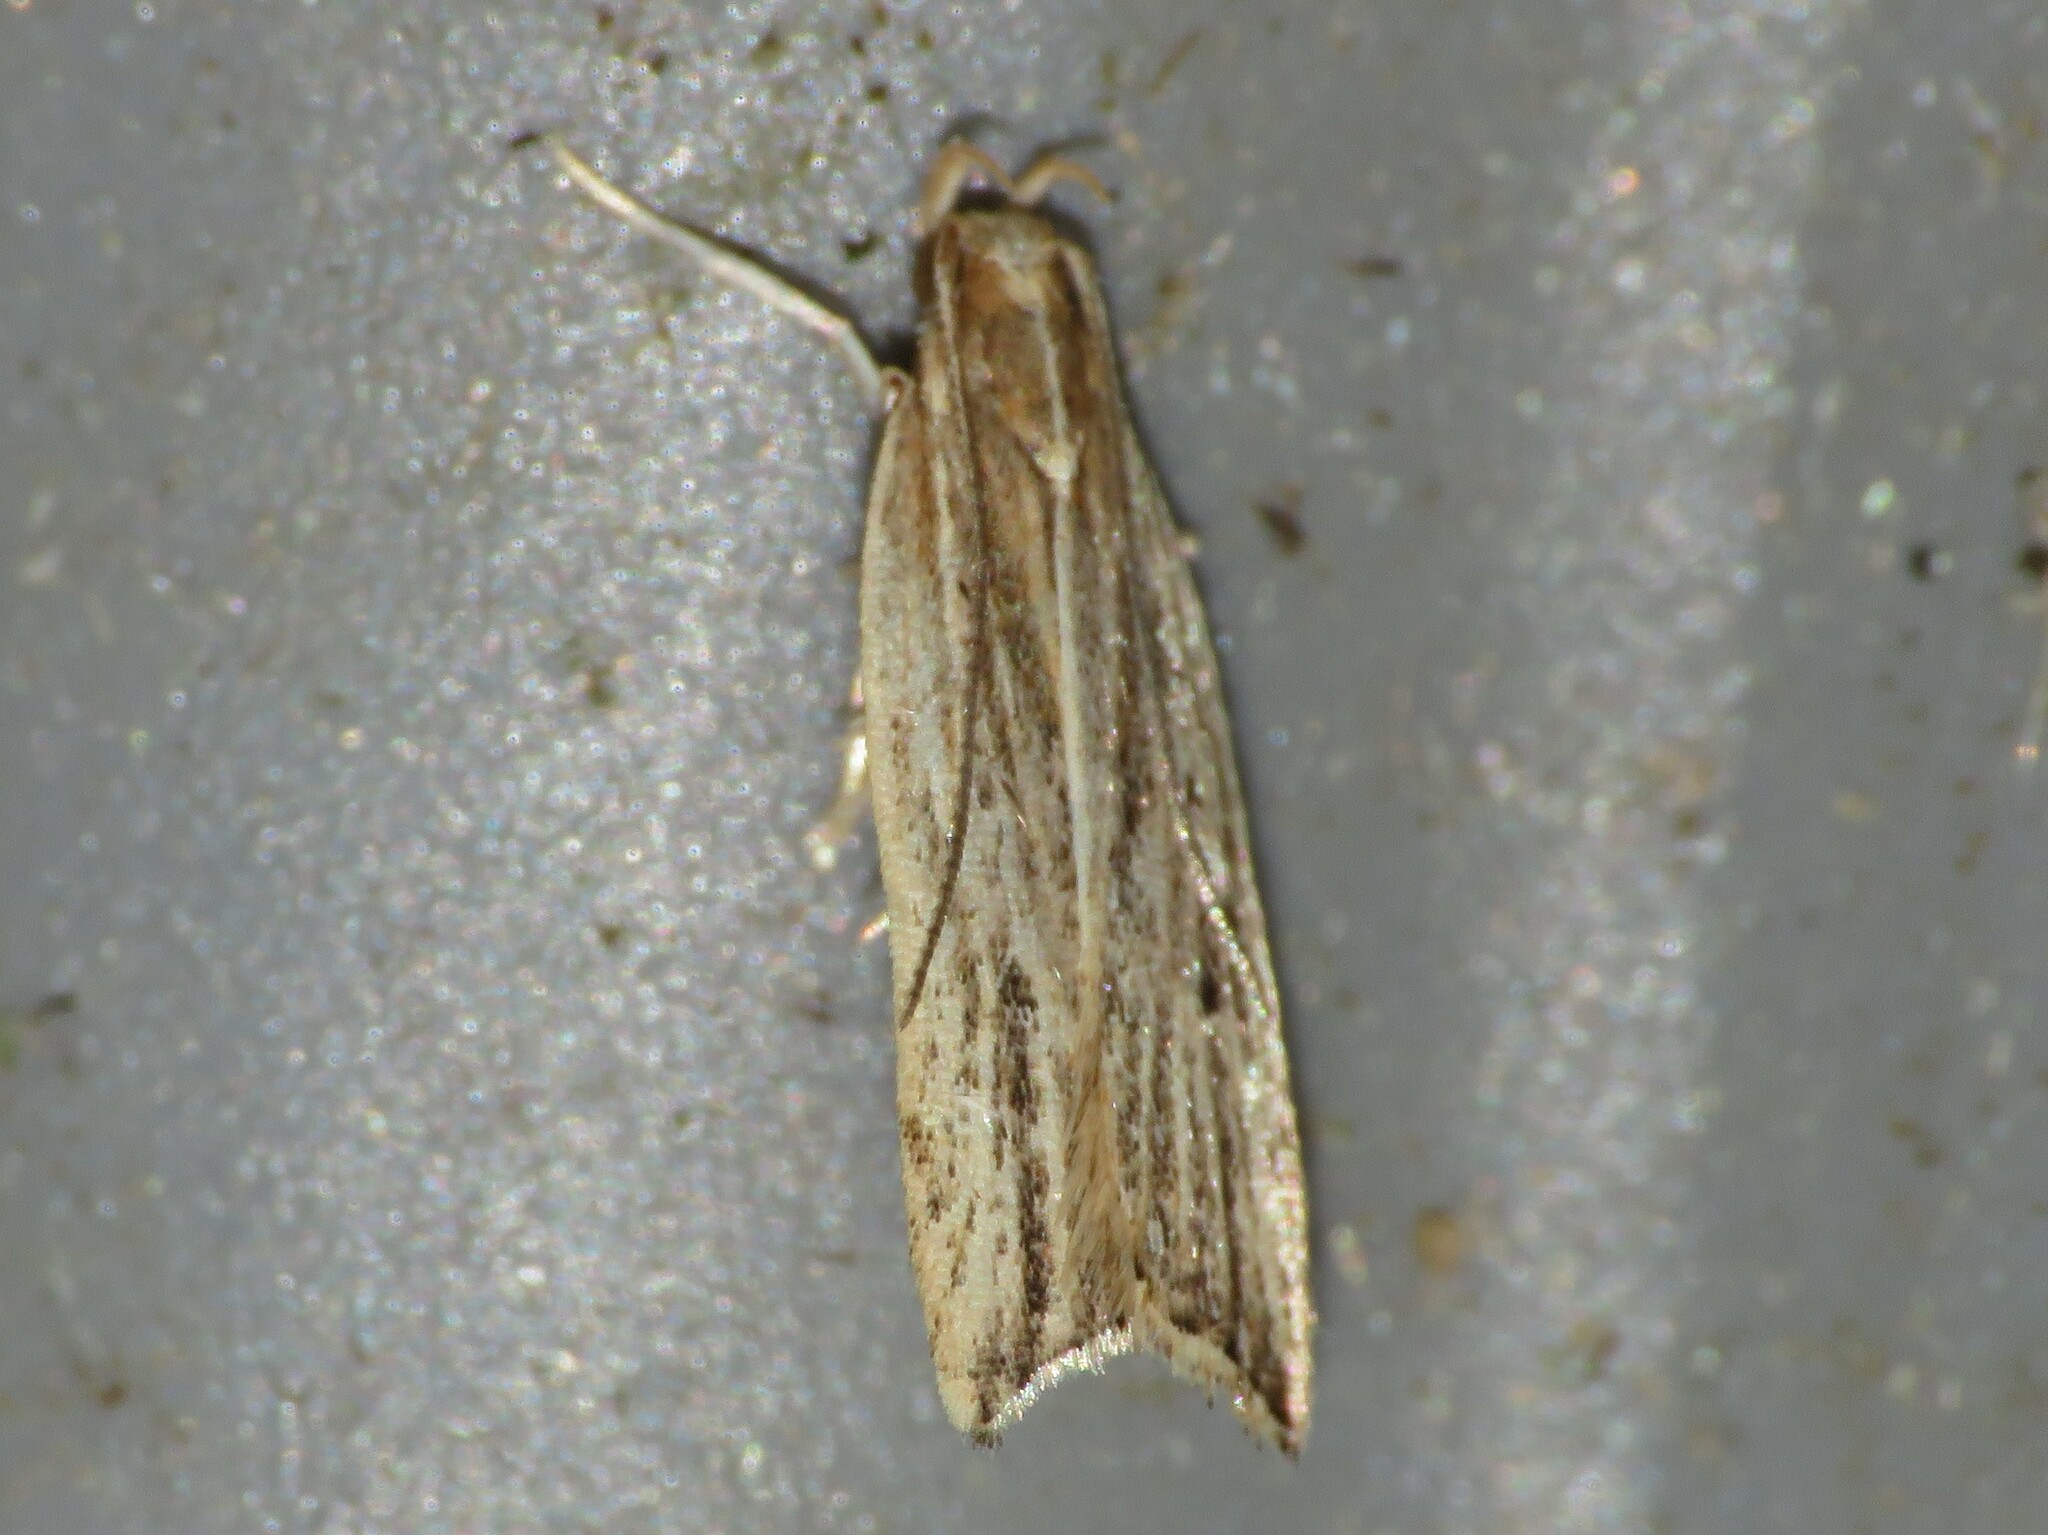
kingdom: Animalia
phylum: Arthropoda
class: Insecta
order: Lepidoptera
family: Gelechiidae
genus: Helcystogramma
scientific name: Helcystogramma hystricella
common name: Lanceolate moth
